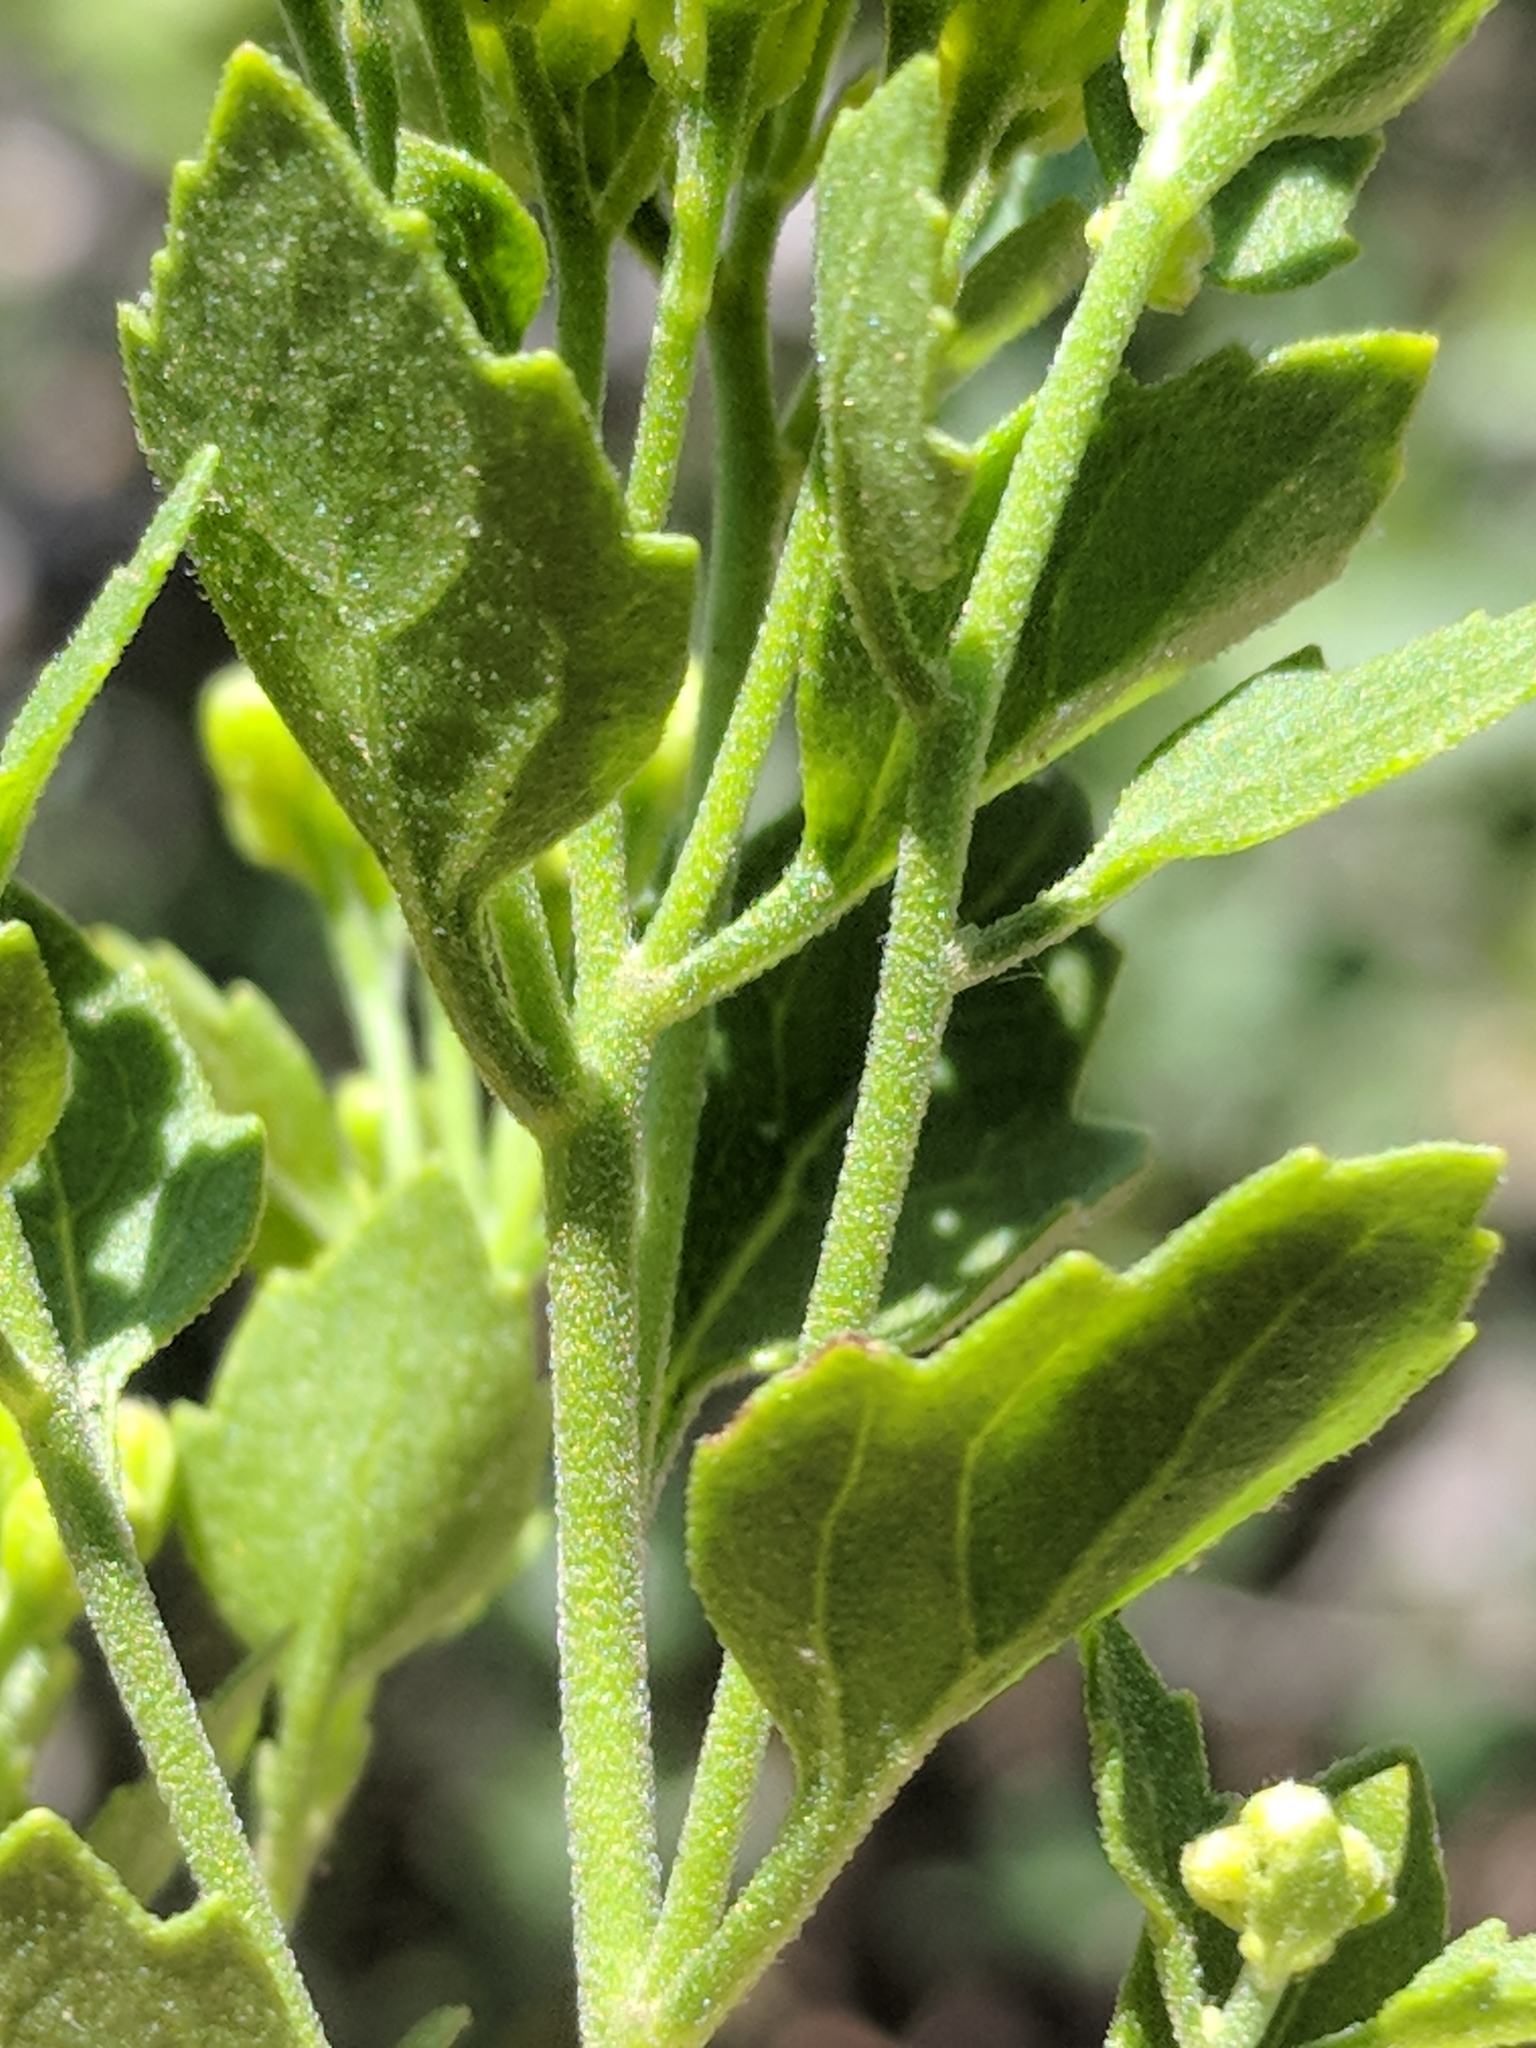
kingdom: Plantae
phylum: Tracheophyta
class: Magnoliopsida
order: Asterales
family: Asteraceae
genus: Laphamia
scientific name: Laphamia lindheimeri
